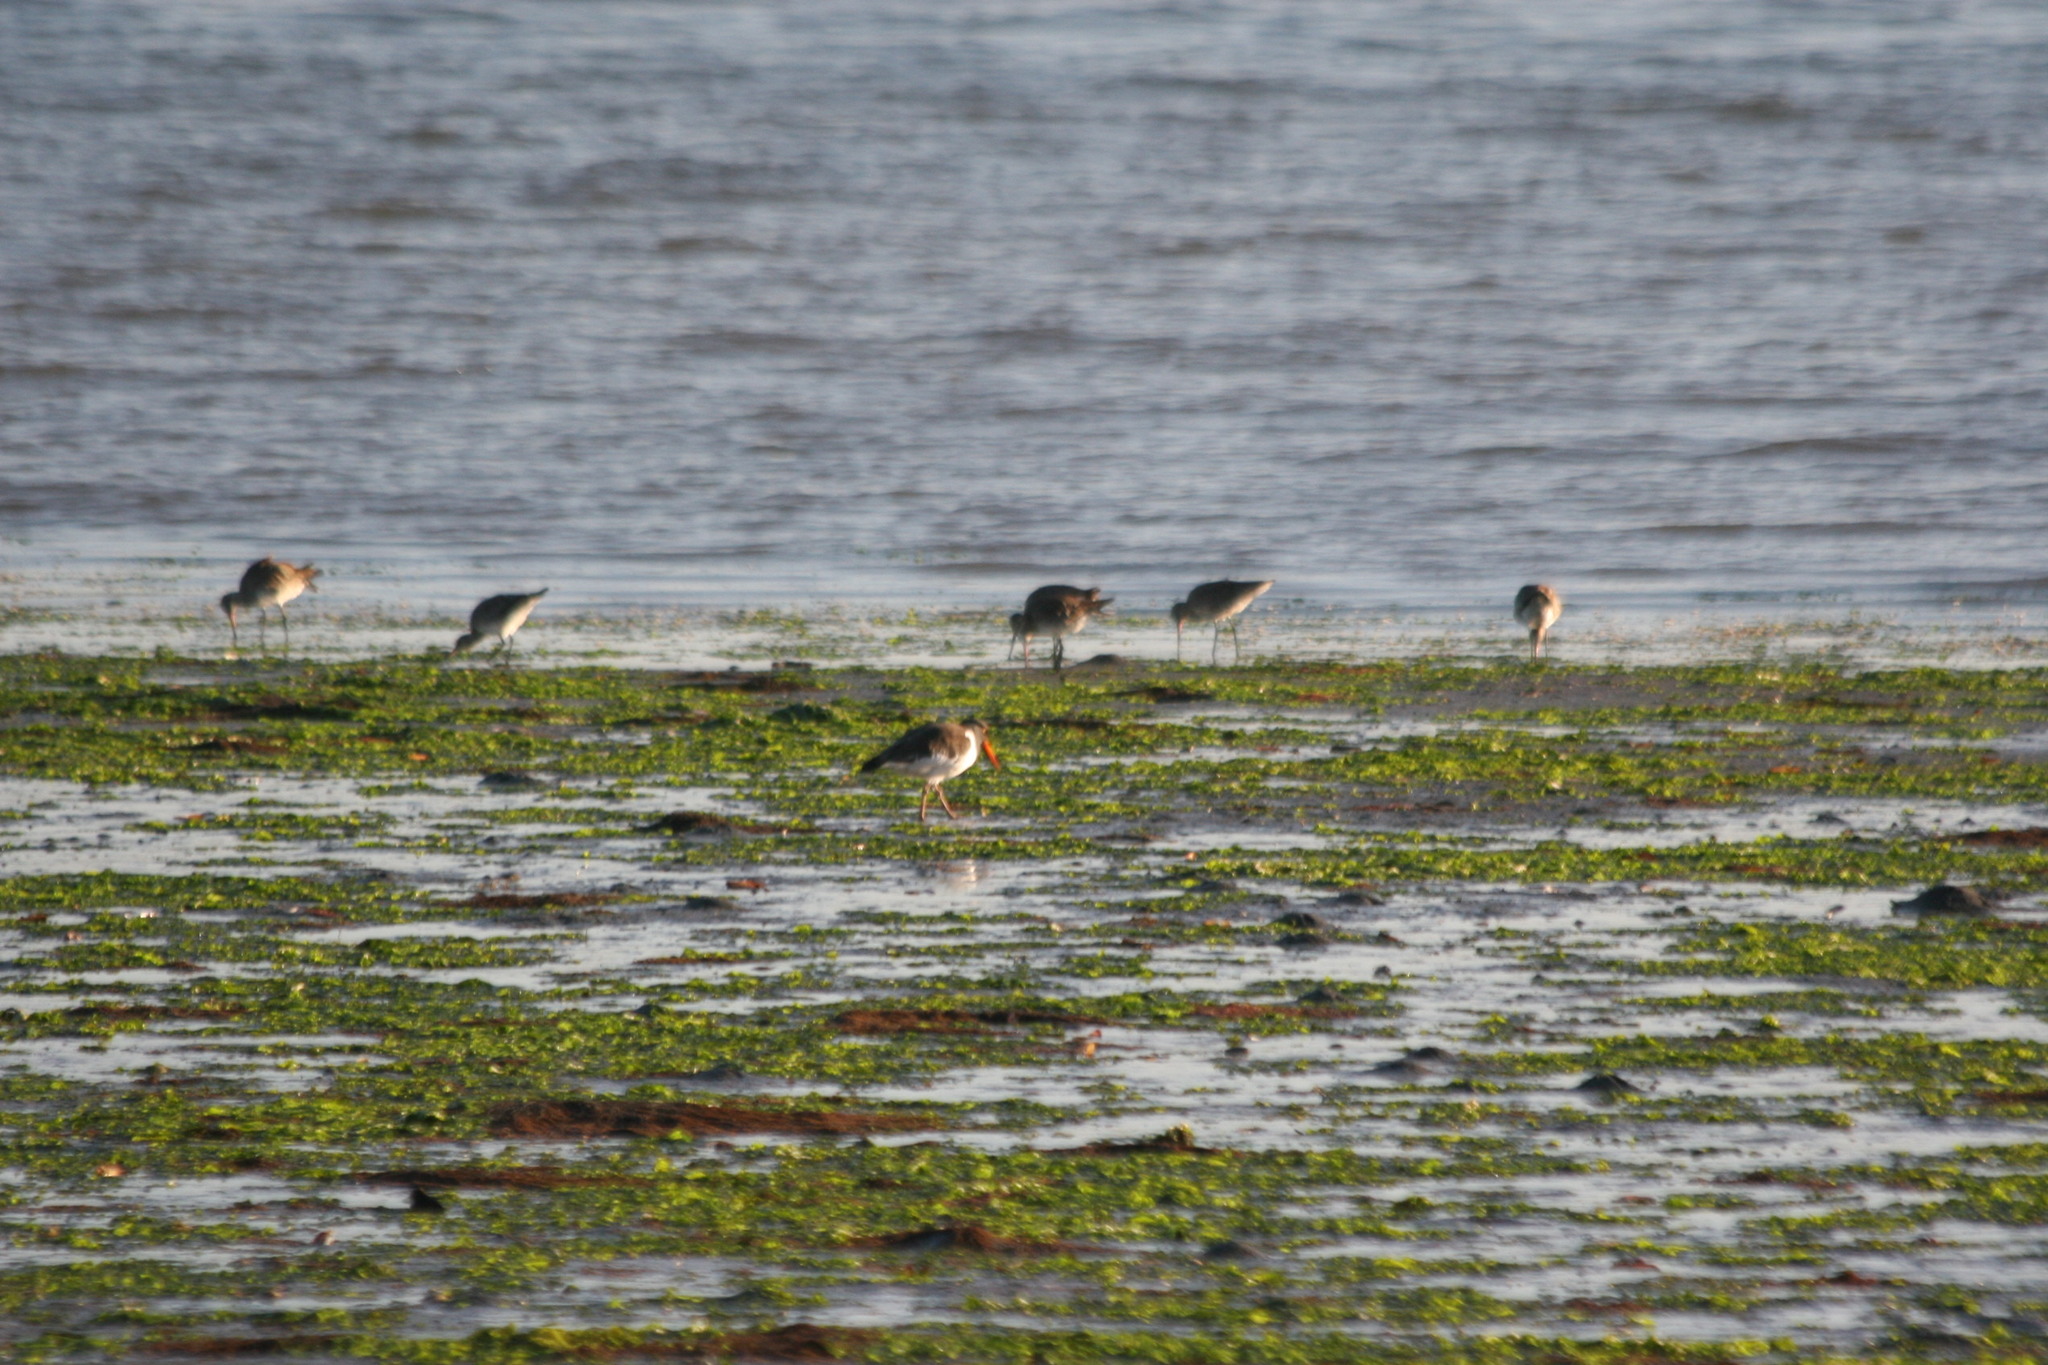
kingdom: Animalia
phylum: Chordata
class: Aves
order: Charadriiformes
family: Haematopodidae
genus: Haematopus
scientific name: Haematopus palliatus
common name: American oystercatcher
